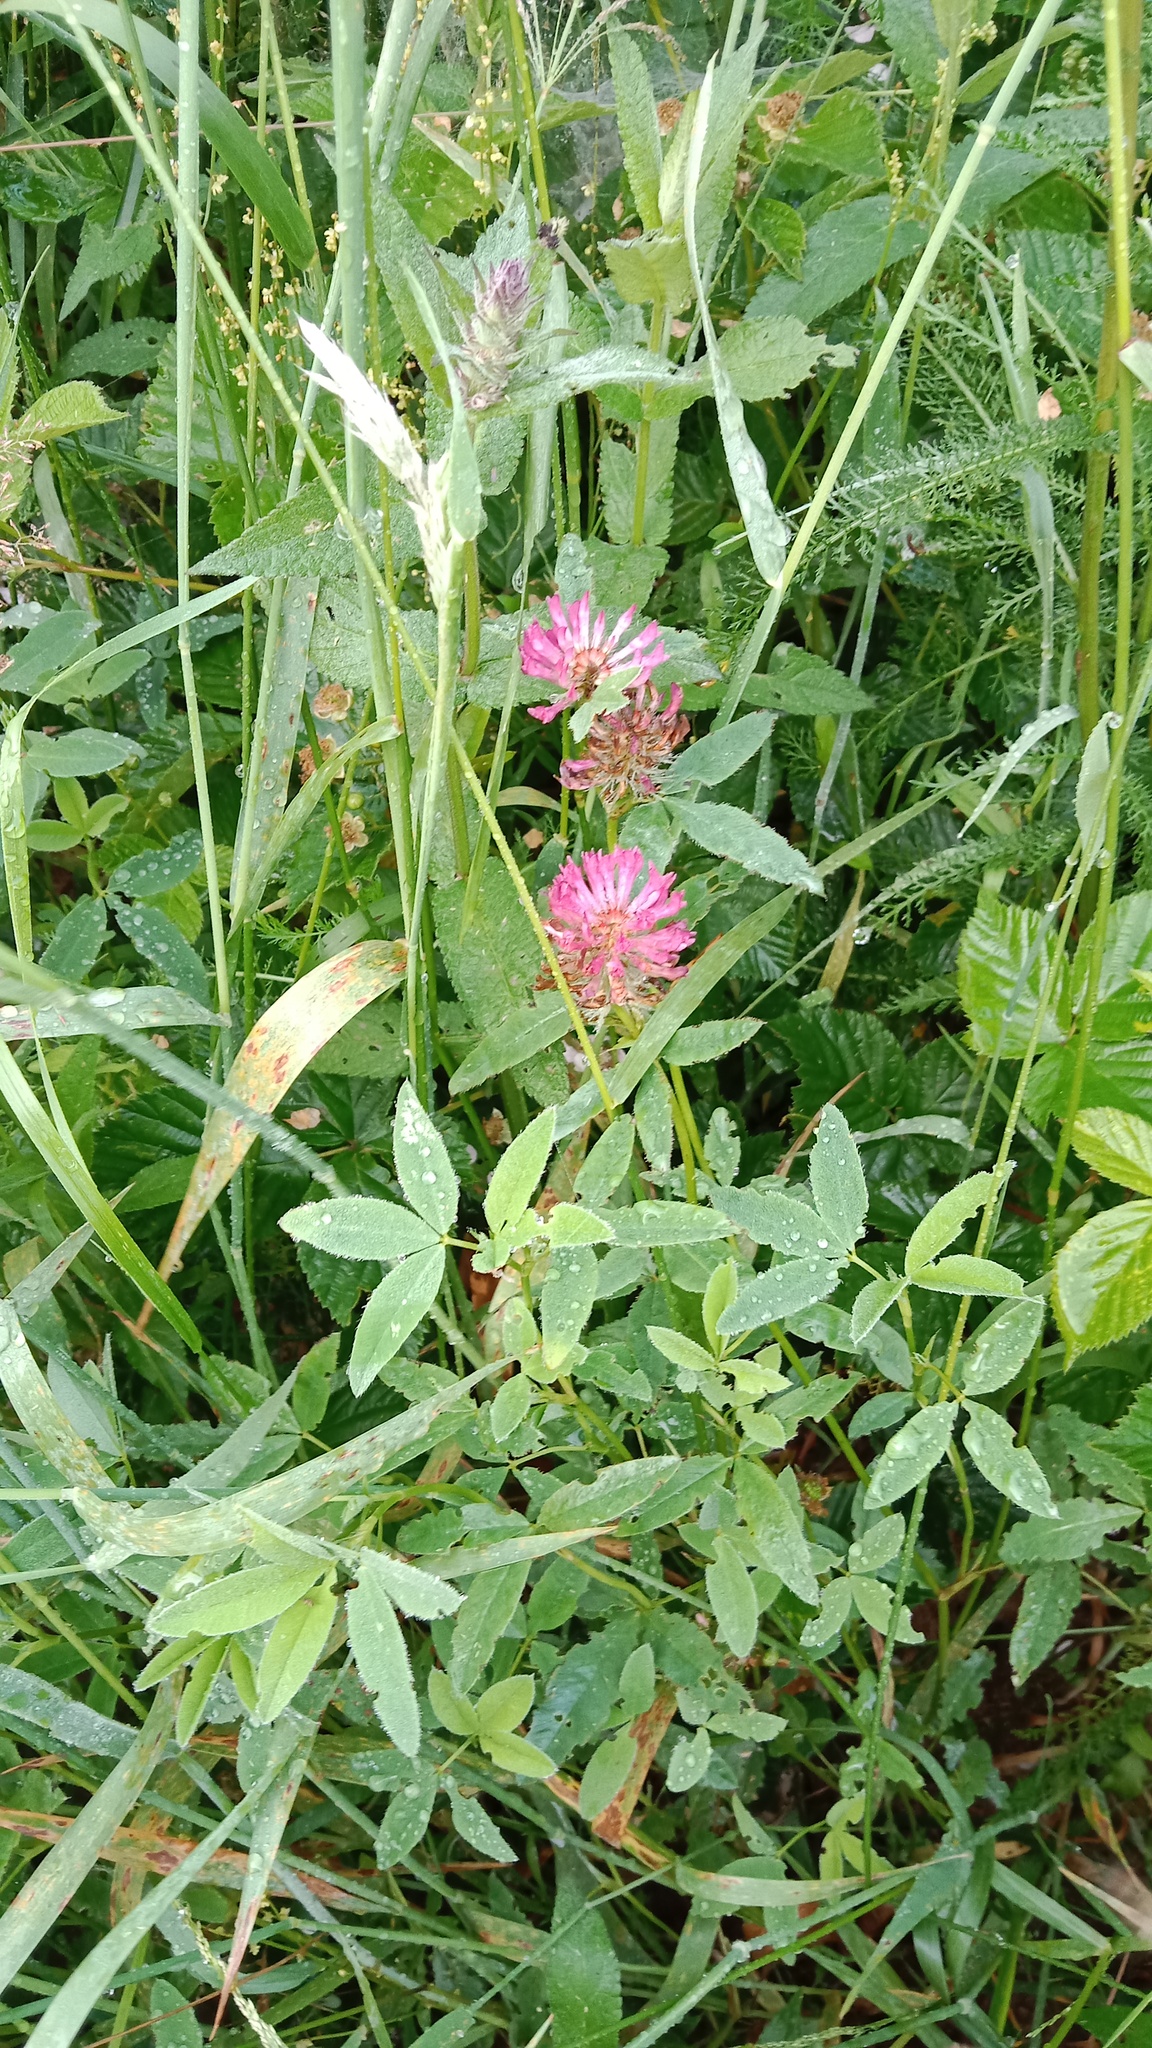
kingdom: Plantae
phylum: Tracheophyta
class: Magnoliopsida
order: Fabales
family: Fabaceae
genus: Trifolium
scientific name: Trifolium medium
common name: Zigzag clover
